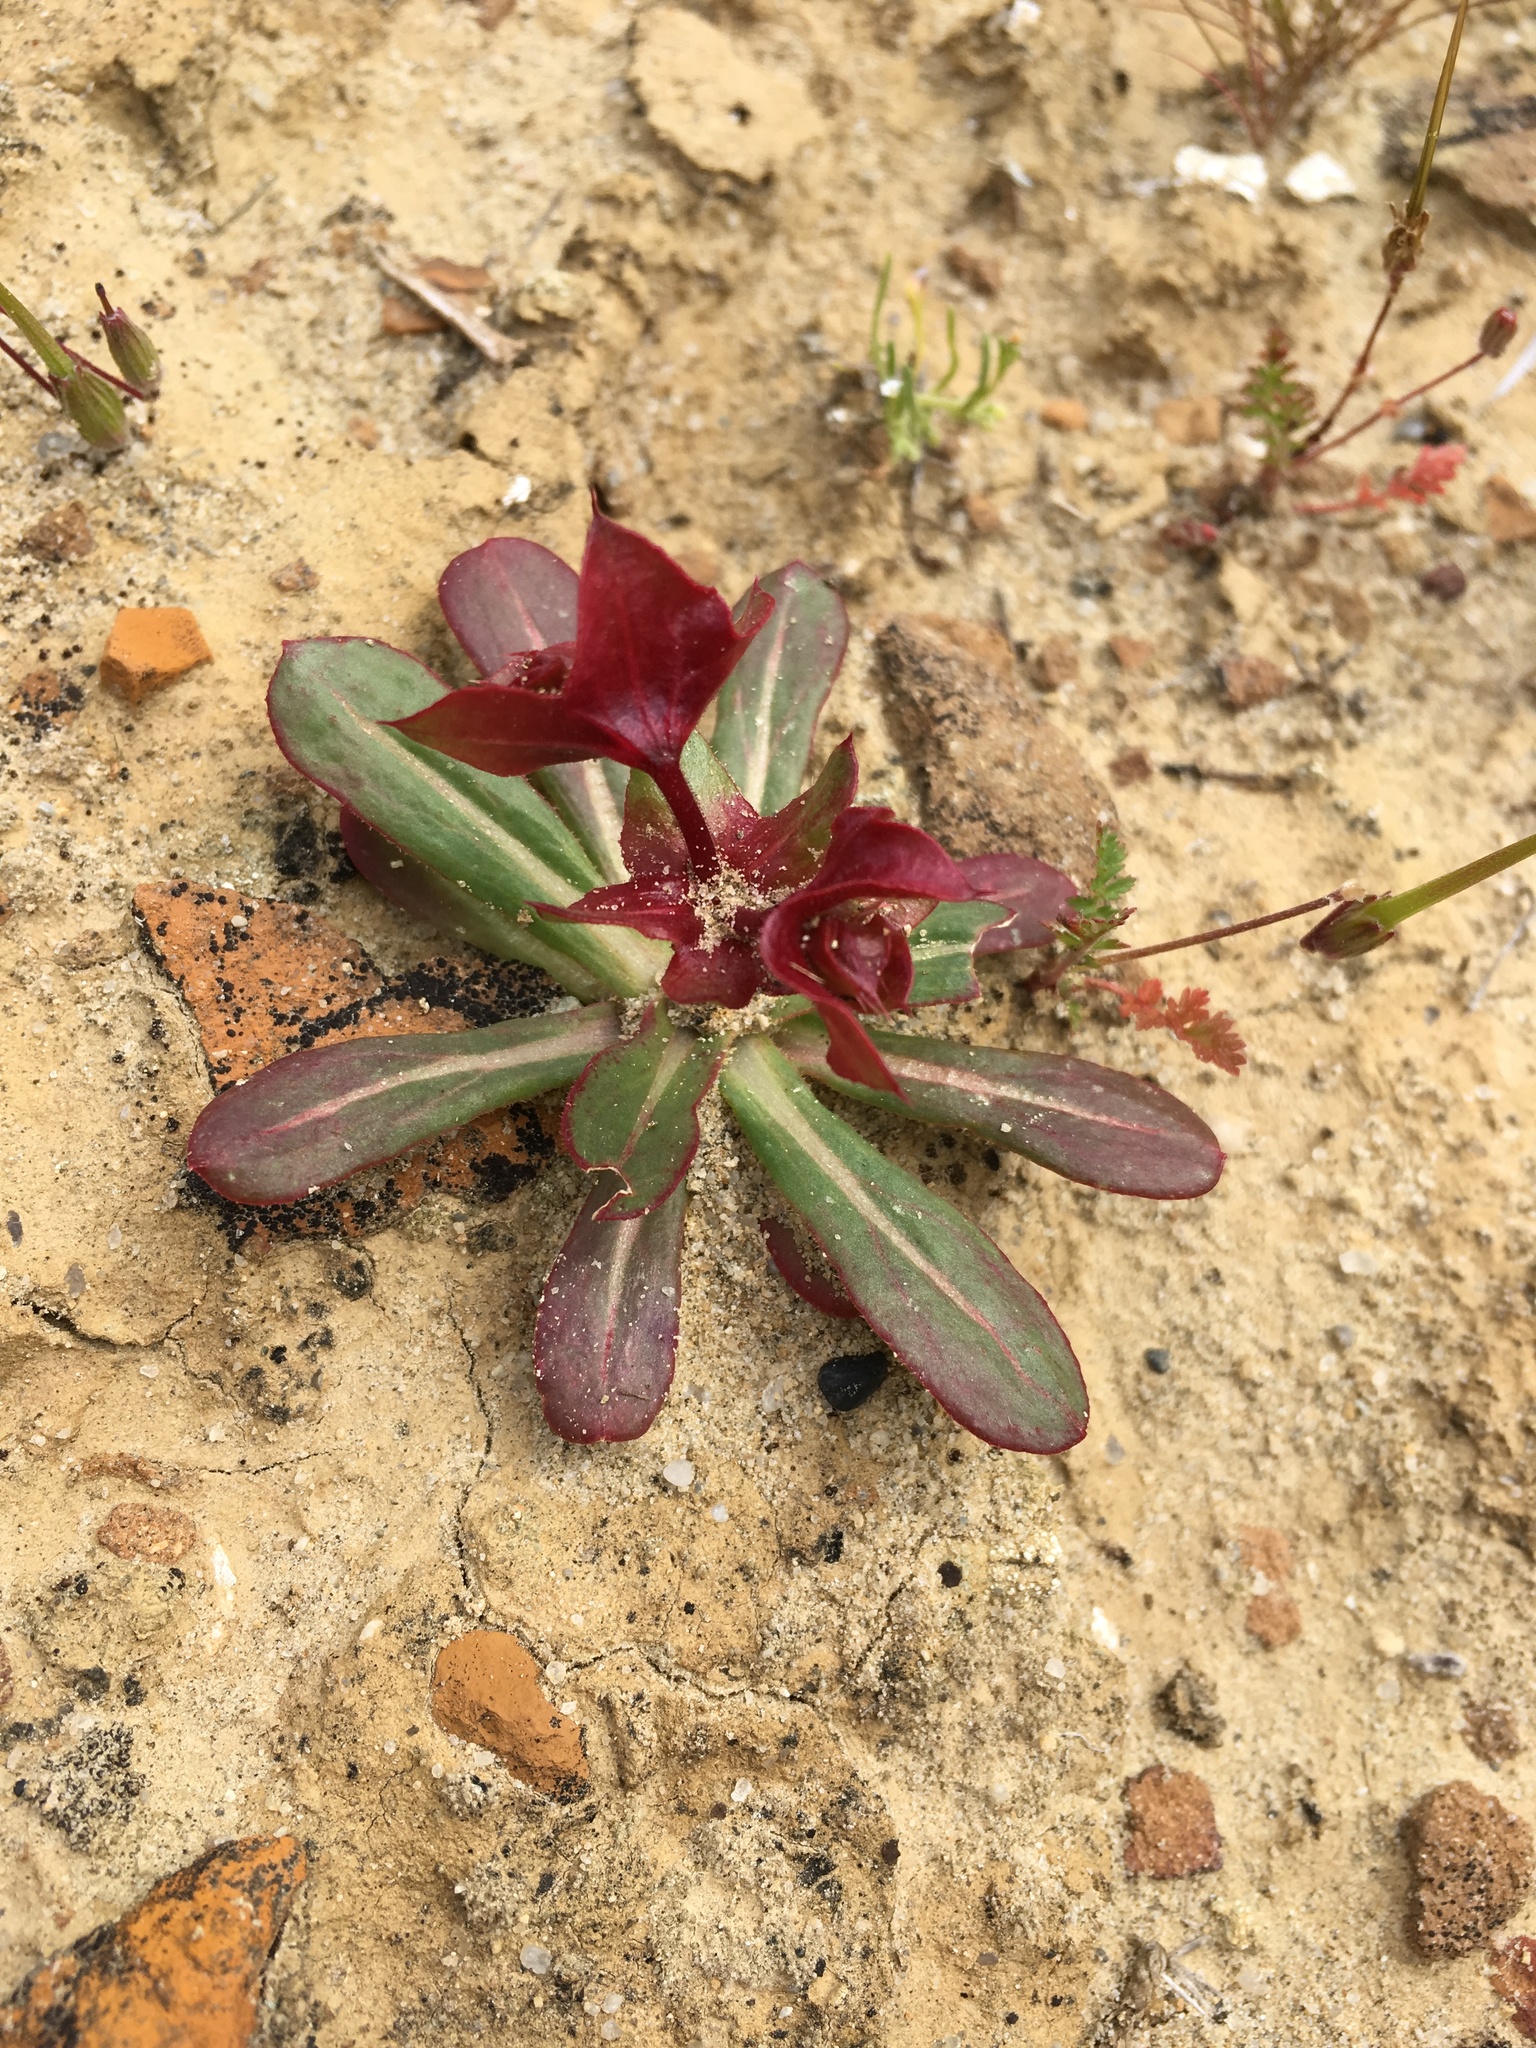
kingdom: Plantae
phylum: Tracheophyta
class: Magnoliopsida
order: Caryophyllales
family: Polygonaceae
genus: Mucronea
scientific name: Mucronea perfoliata
